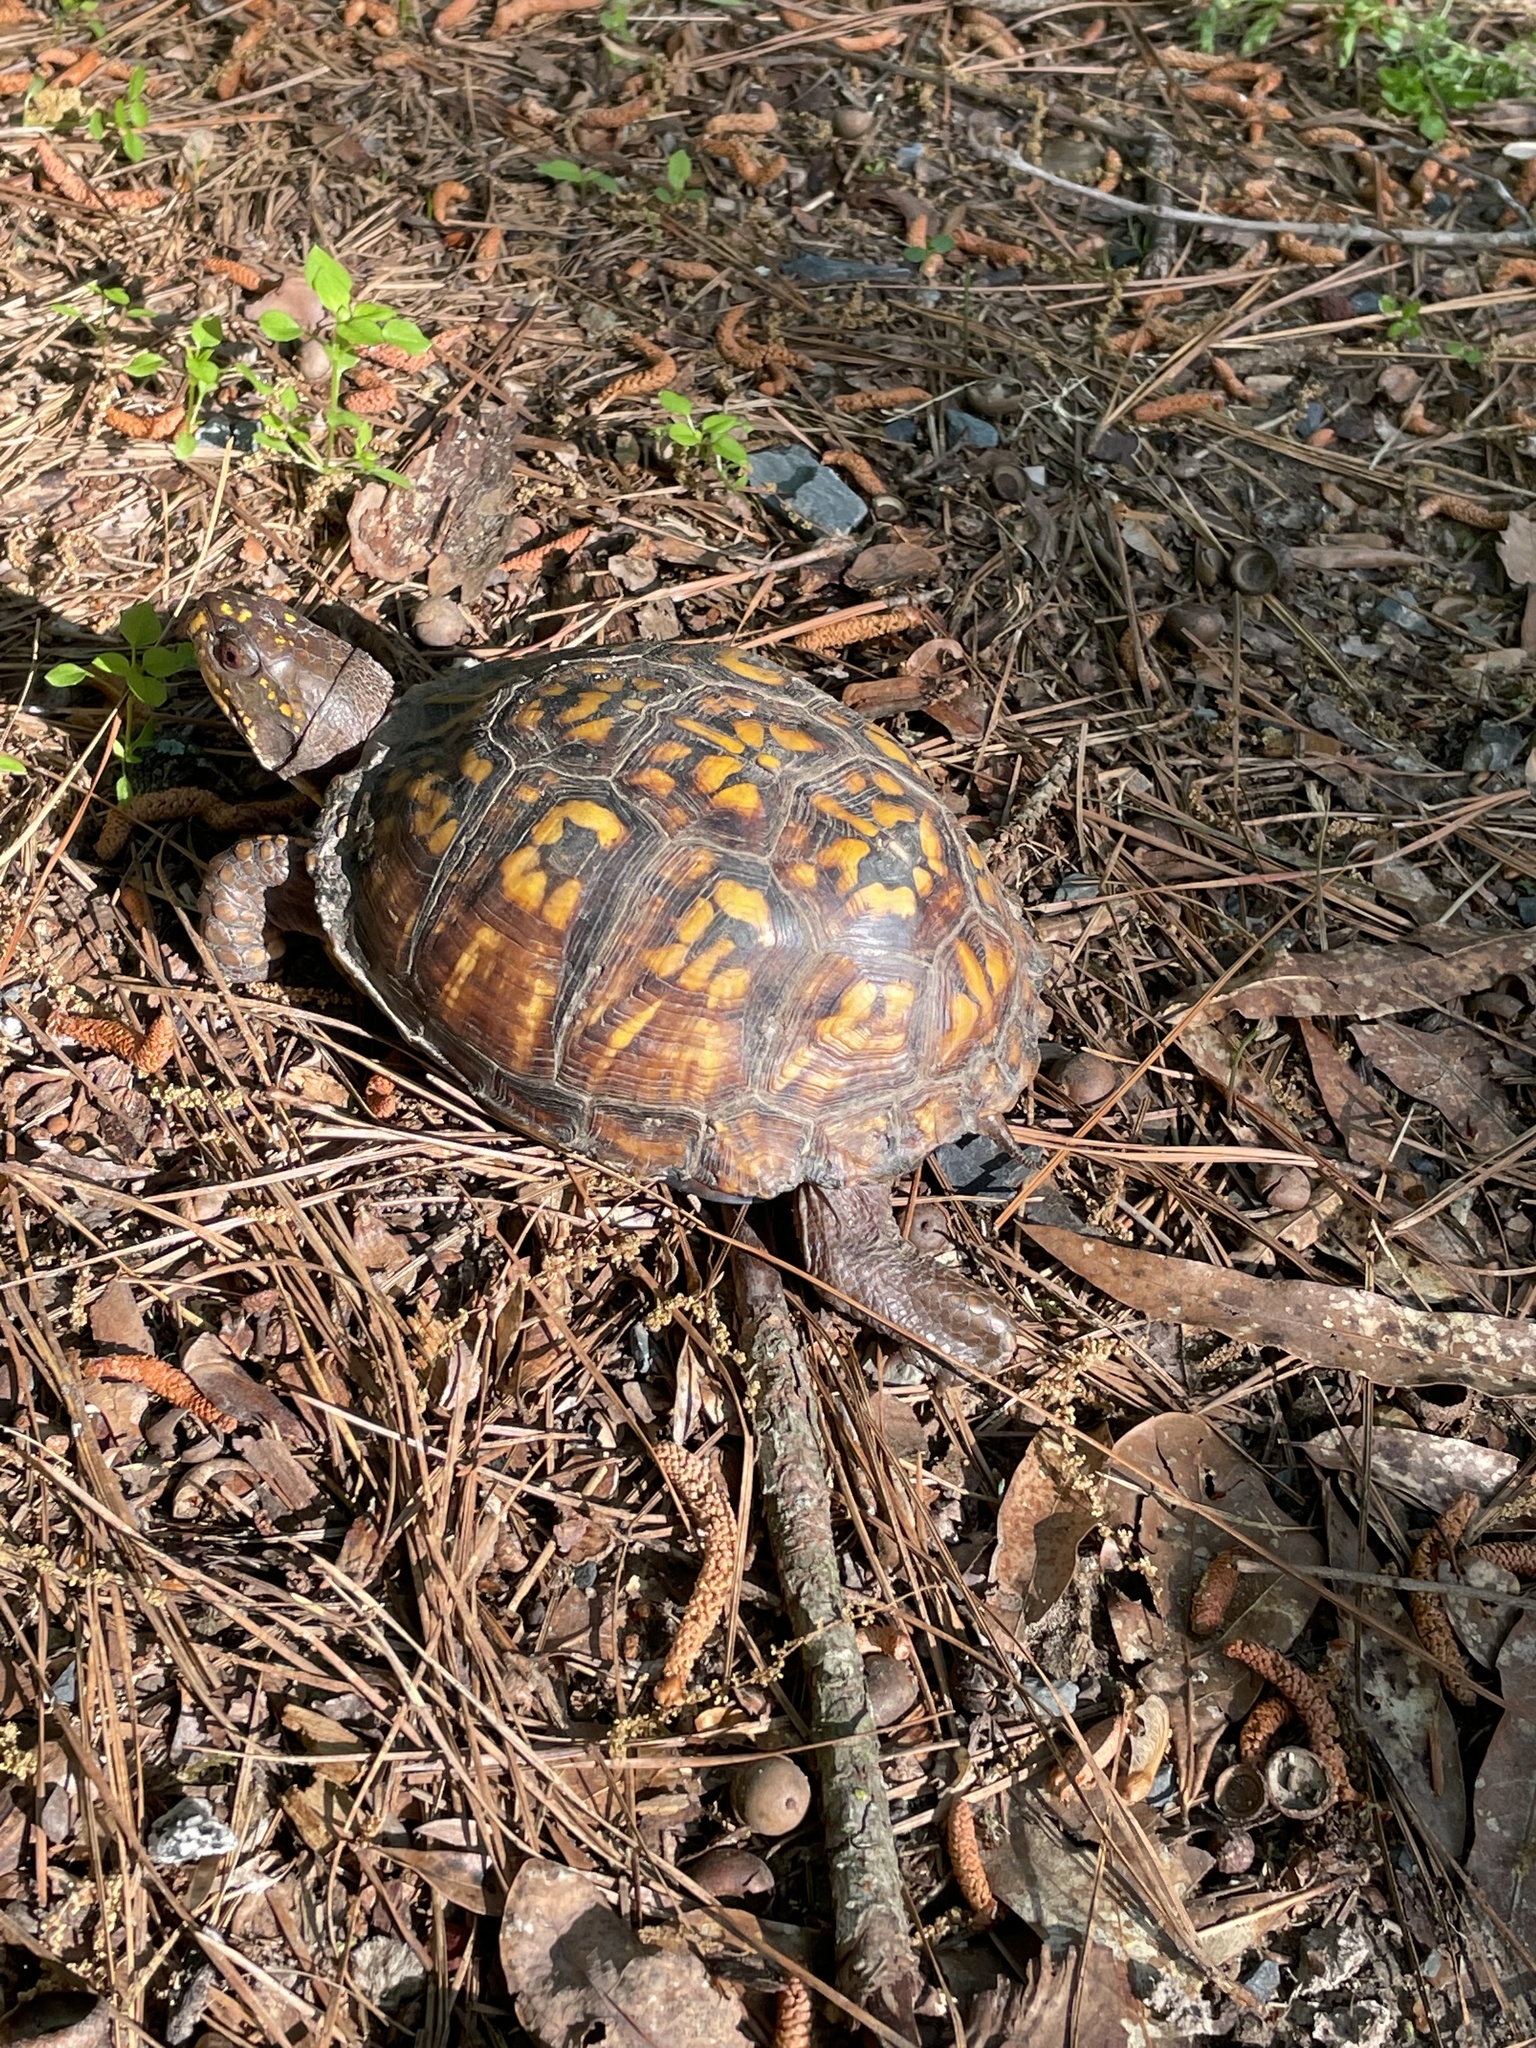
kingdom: Animalia
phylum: Chordata
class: Testudines
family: Emydidae
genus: Terrapene
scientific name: Terrapene carolina
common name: Common box turtle
